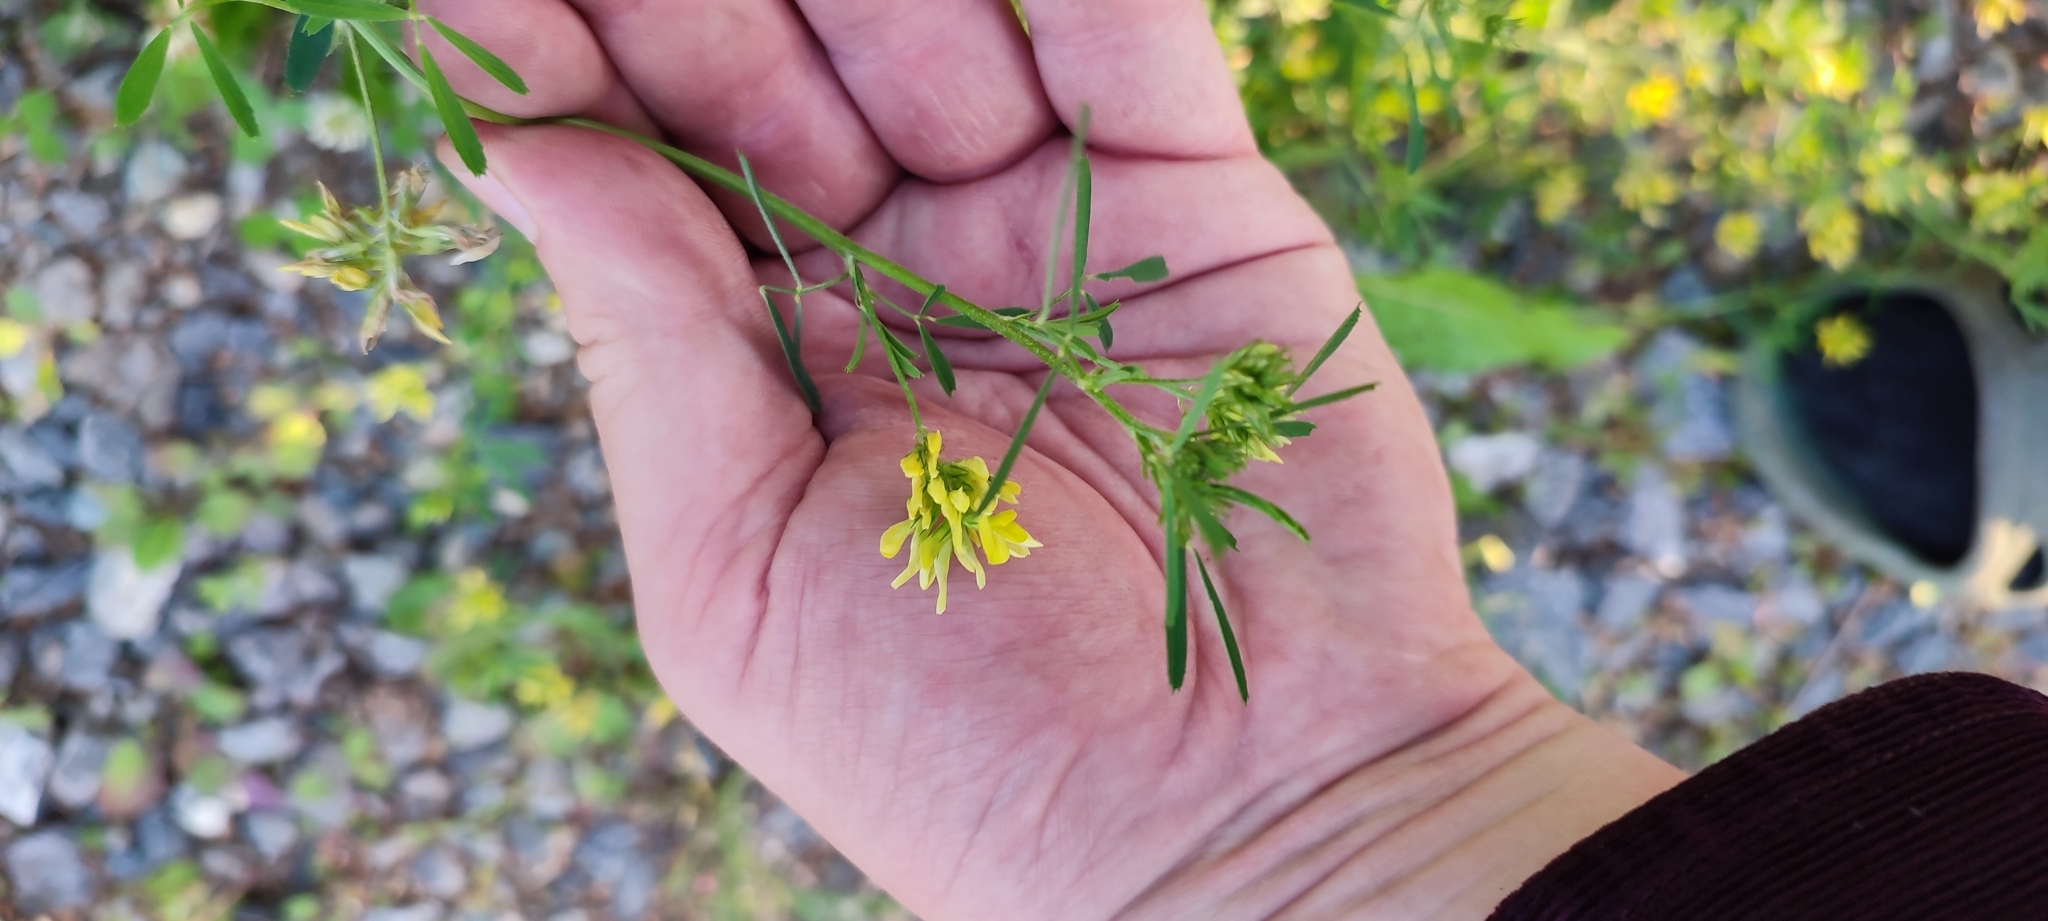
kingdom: Plantae
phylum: Tracheophyta
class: Magnoliopsida
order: Fabales
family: Fabaceae
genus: Medicago
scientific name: Medicago falcata
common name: Sickle medick
